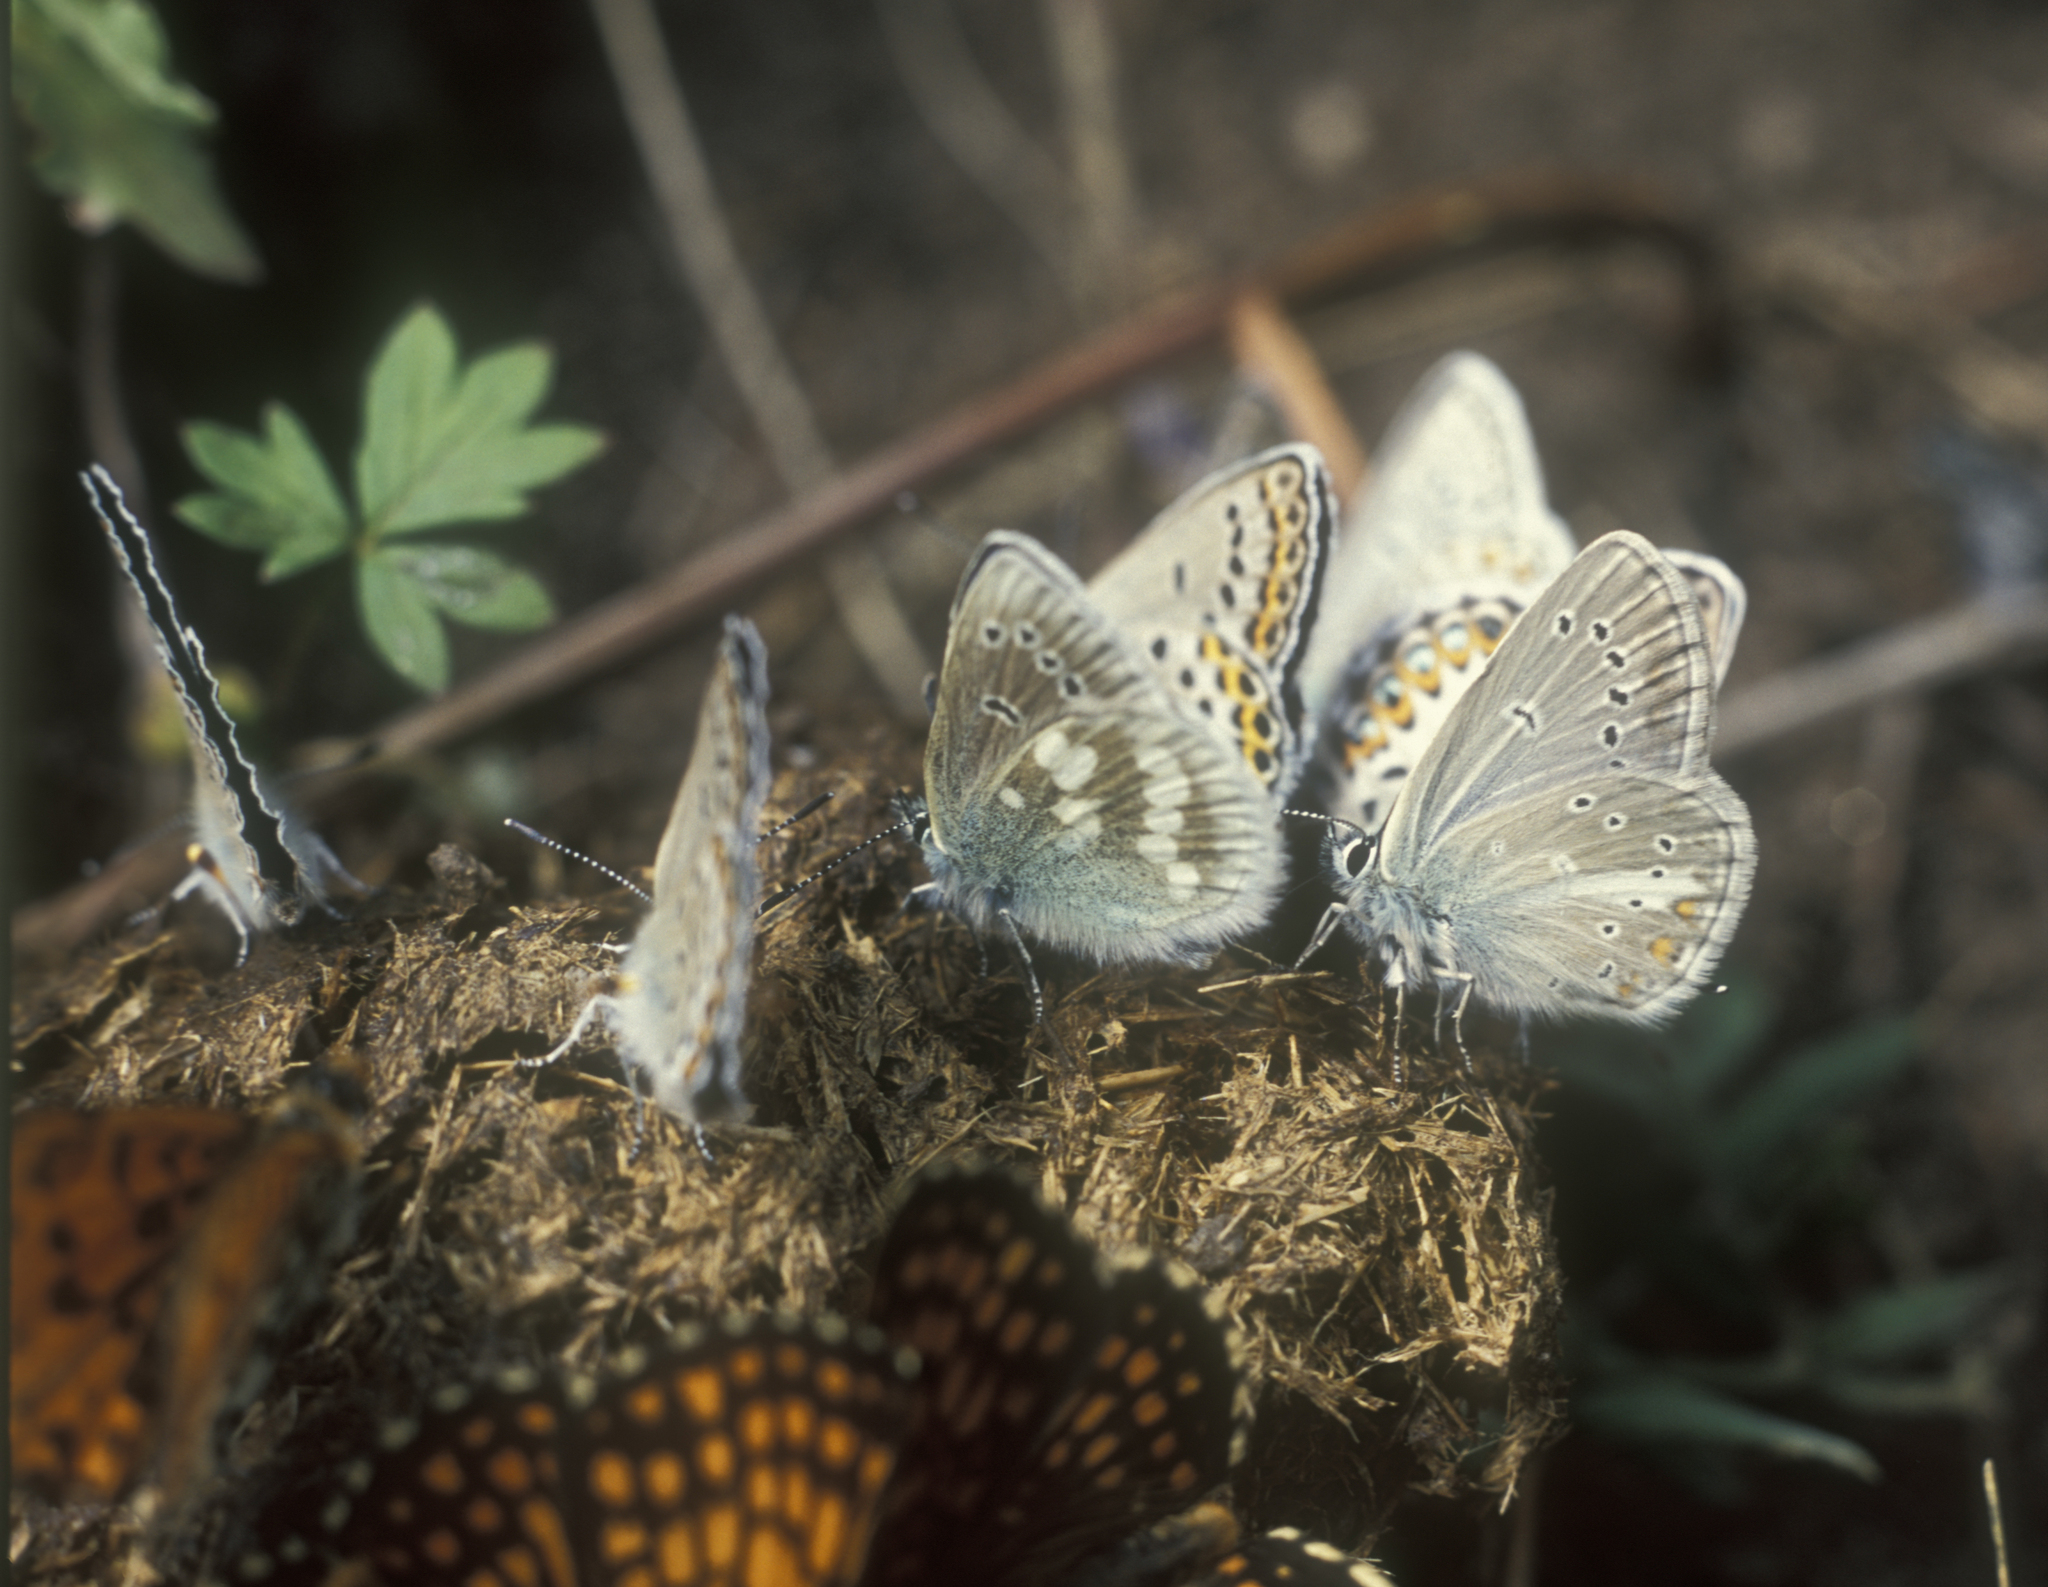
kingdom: Animalia
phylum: Arthropoda
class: Insecta
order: Lepidoptera
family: Lycaenidae
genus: Pseudoaricia
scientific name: Pseudoaricia nicias
